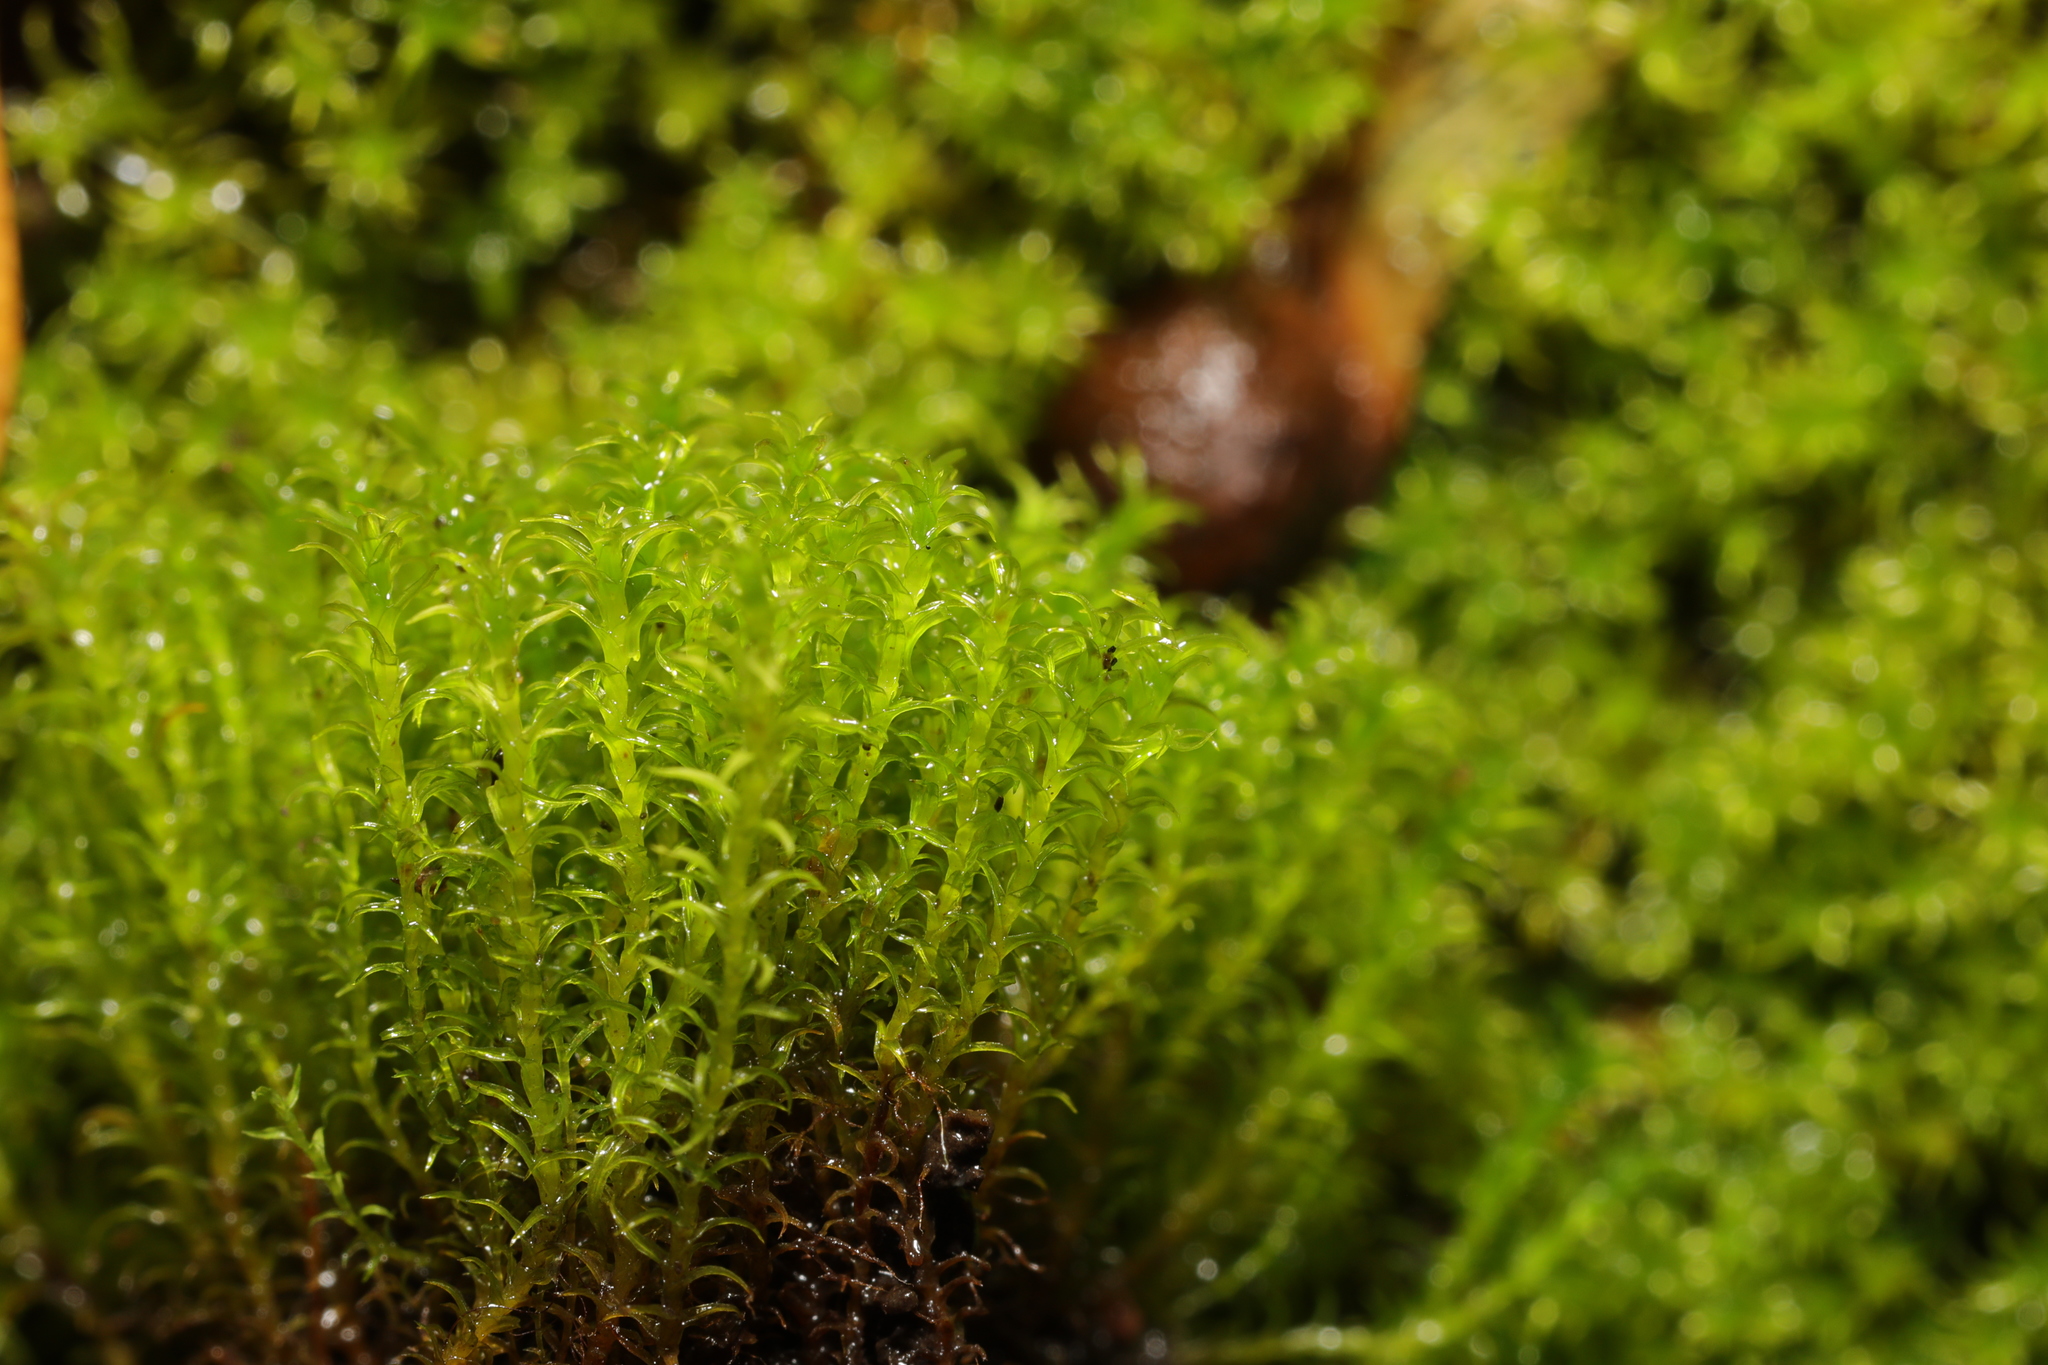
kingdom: Plantae
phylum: Bryophyta
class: Bryopsida
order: Pottiales
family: Pottiaceae
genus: Vinealobryum
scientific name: Vinealobryum insulanum
